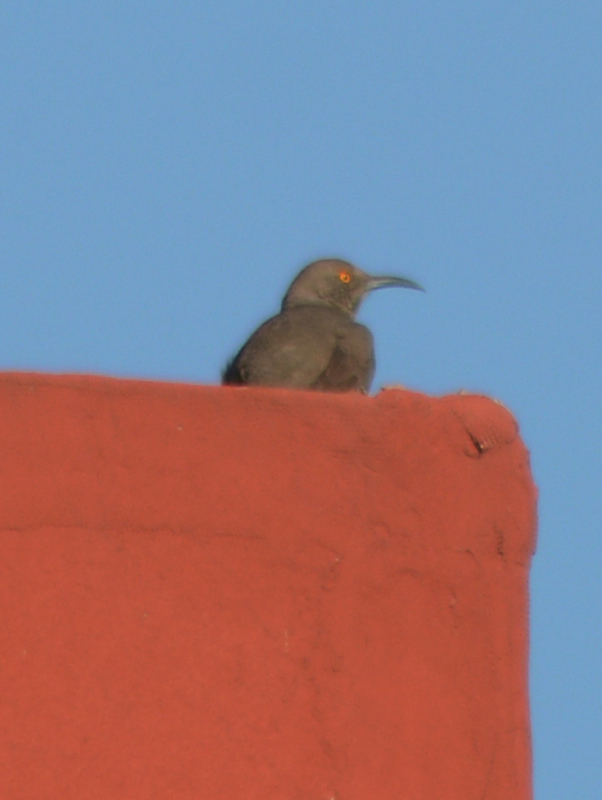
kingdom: Animalia
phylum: Chordata
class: Aves
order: Passeriformes
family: Mimidae
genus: Toxostoma
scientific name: Toxostoma curvirostre
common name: Curve-billed thrasher
